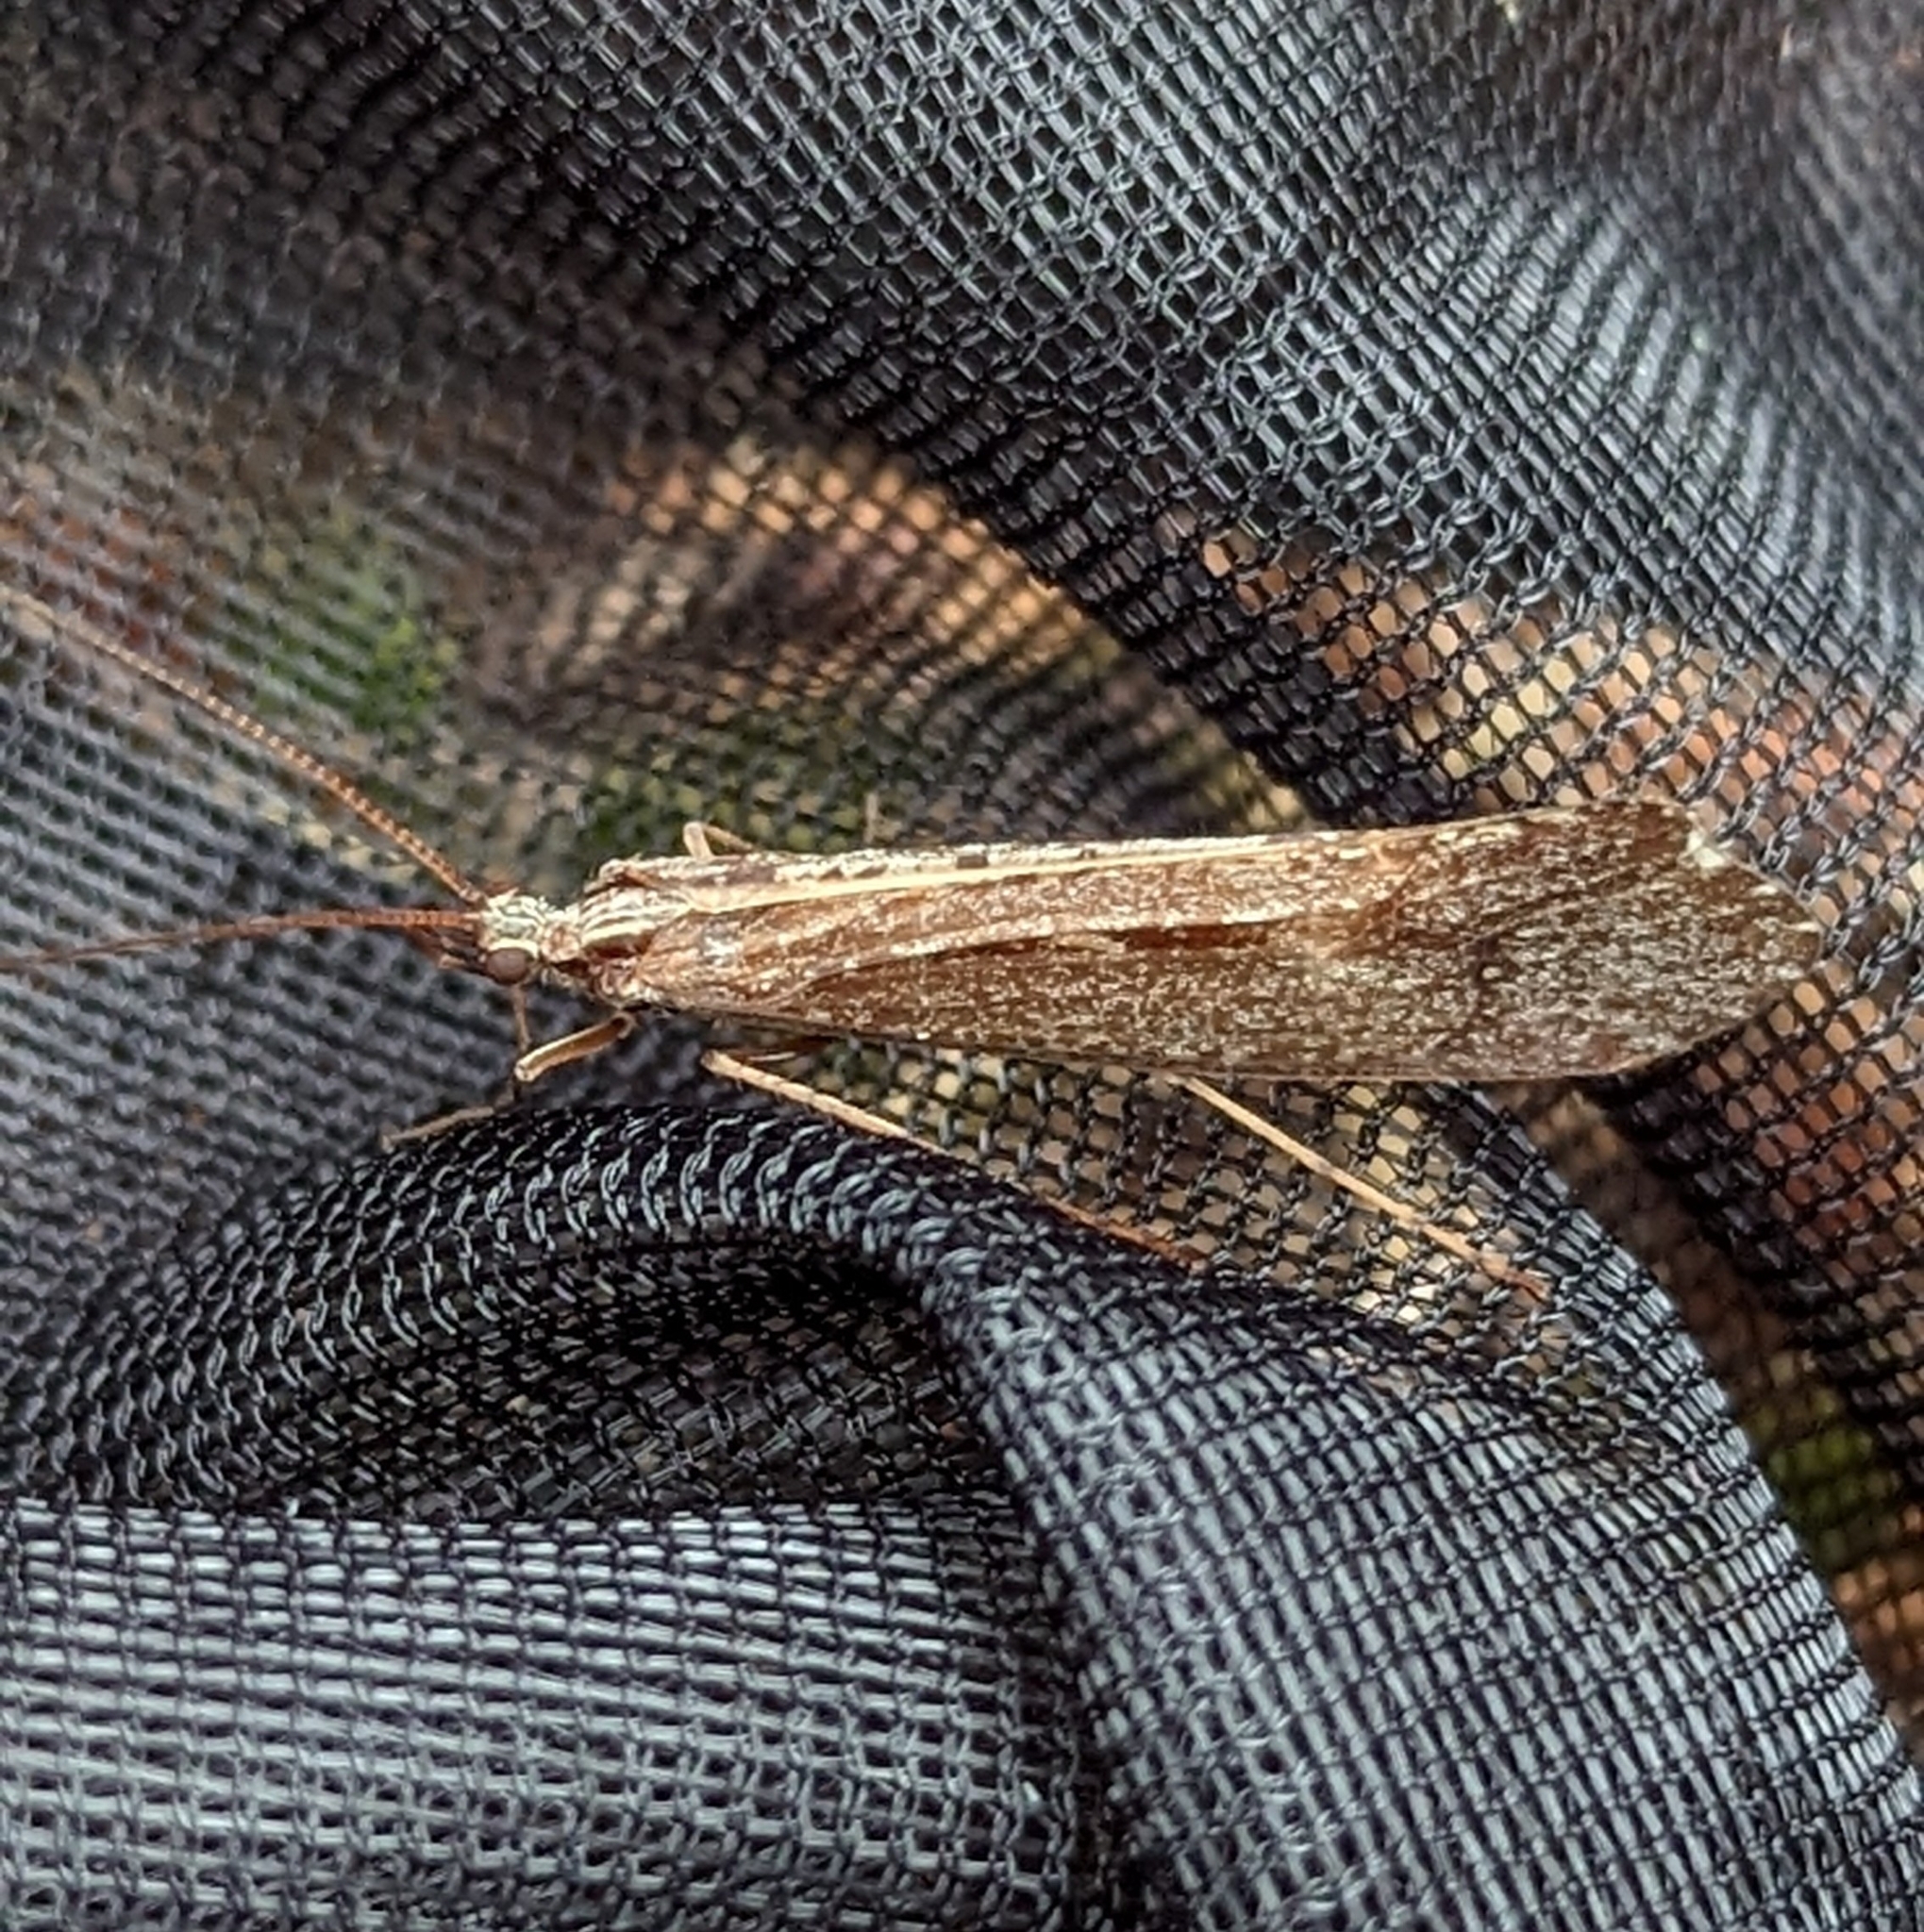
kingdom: Animalia
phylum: Arthropoda
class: Insecta
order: Trichoptera
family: Limnephilidae
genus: Glyphopsyche
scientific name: Glyphopsyche irrorata
